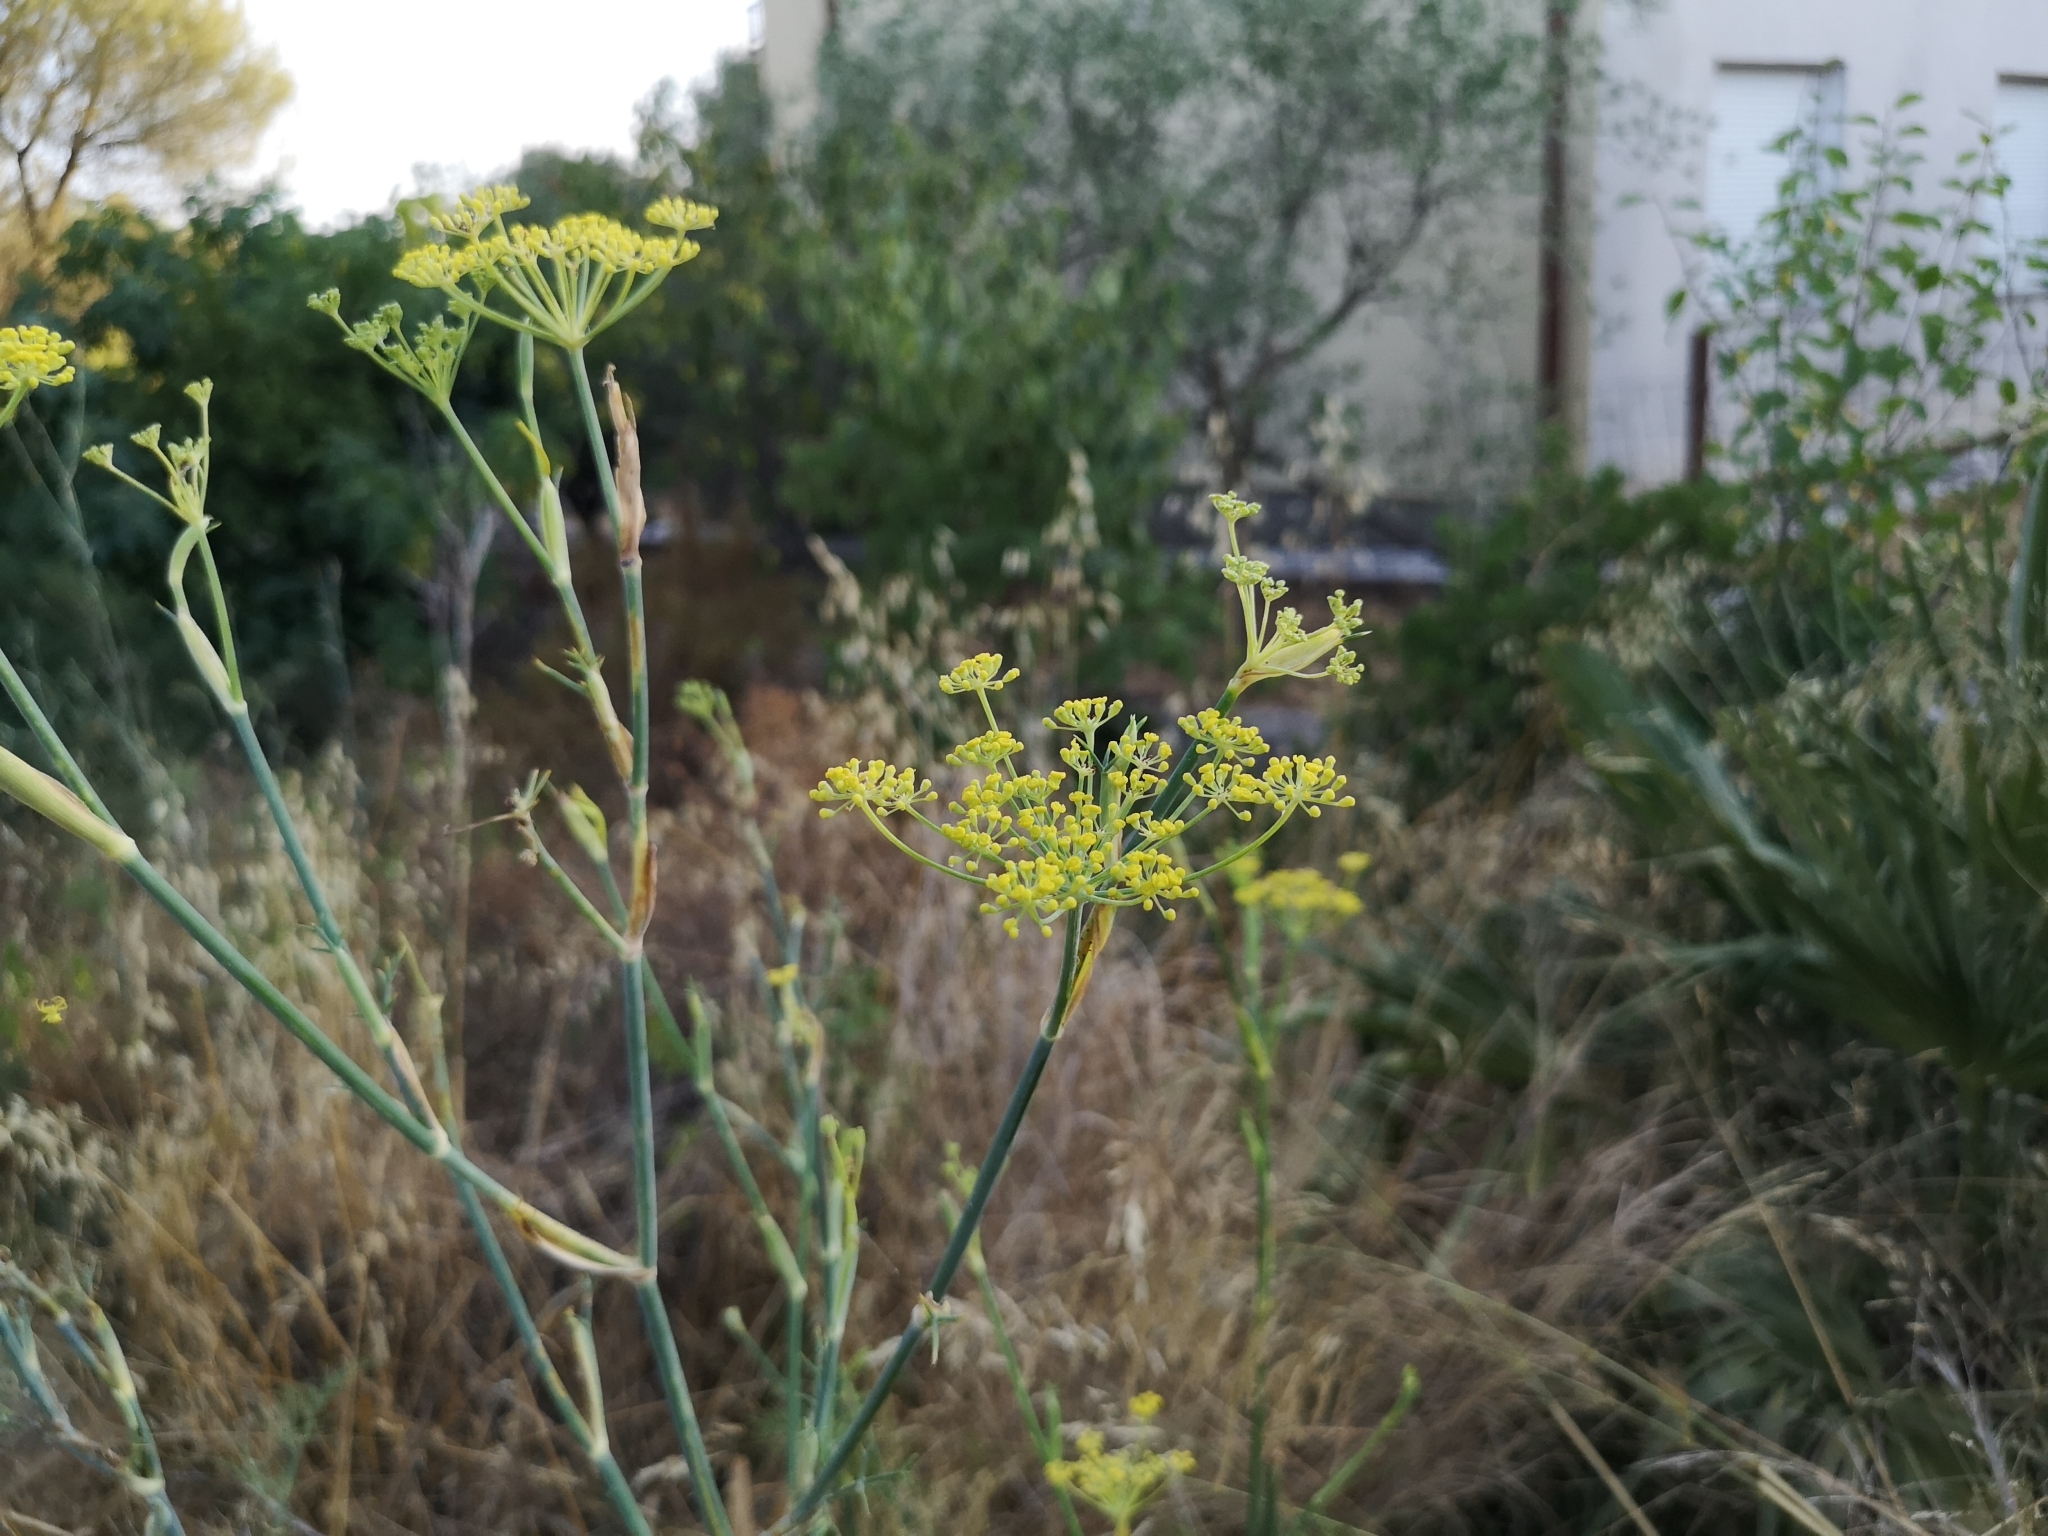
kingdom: Plantae
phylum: Tracheophyta
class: Magnoliopsida
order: Apiales
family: Apiaceae
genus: Foeniculum
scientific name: Foeniculum vulgare
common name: Fennel
